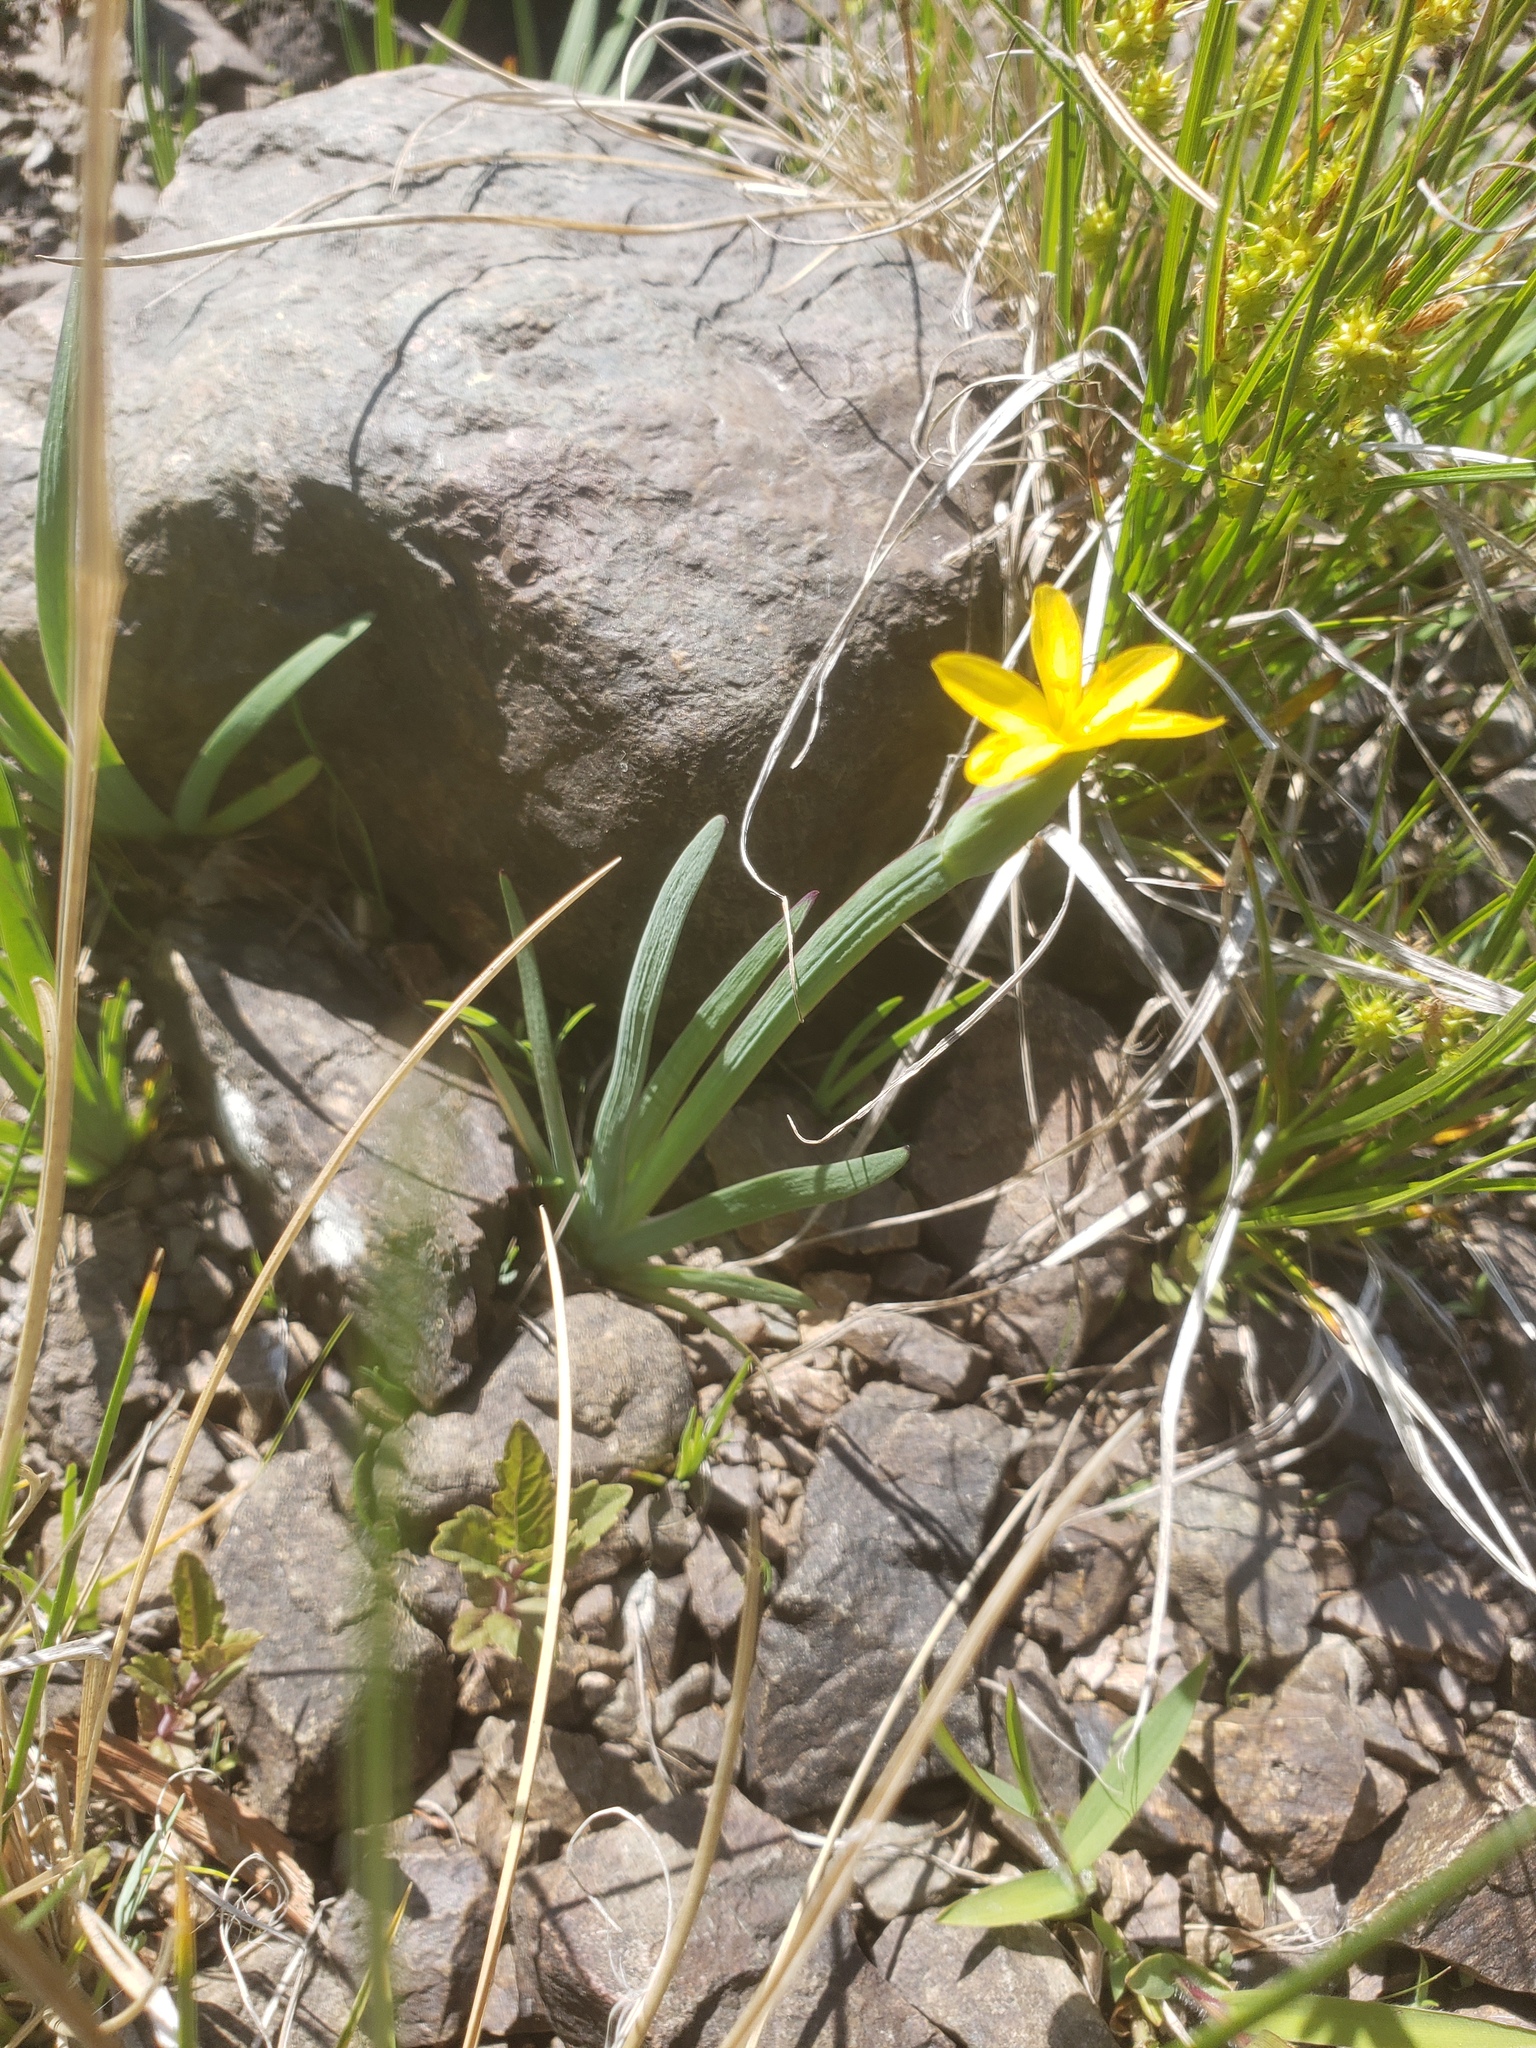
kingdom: Plantae
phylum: Tracheophyta
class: Liliopsida
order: Asparagales
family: Iridaceae
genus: Sisyrinchium
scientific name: Sisyrinchium californicum
